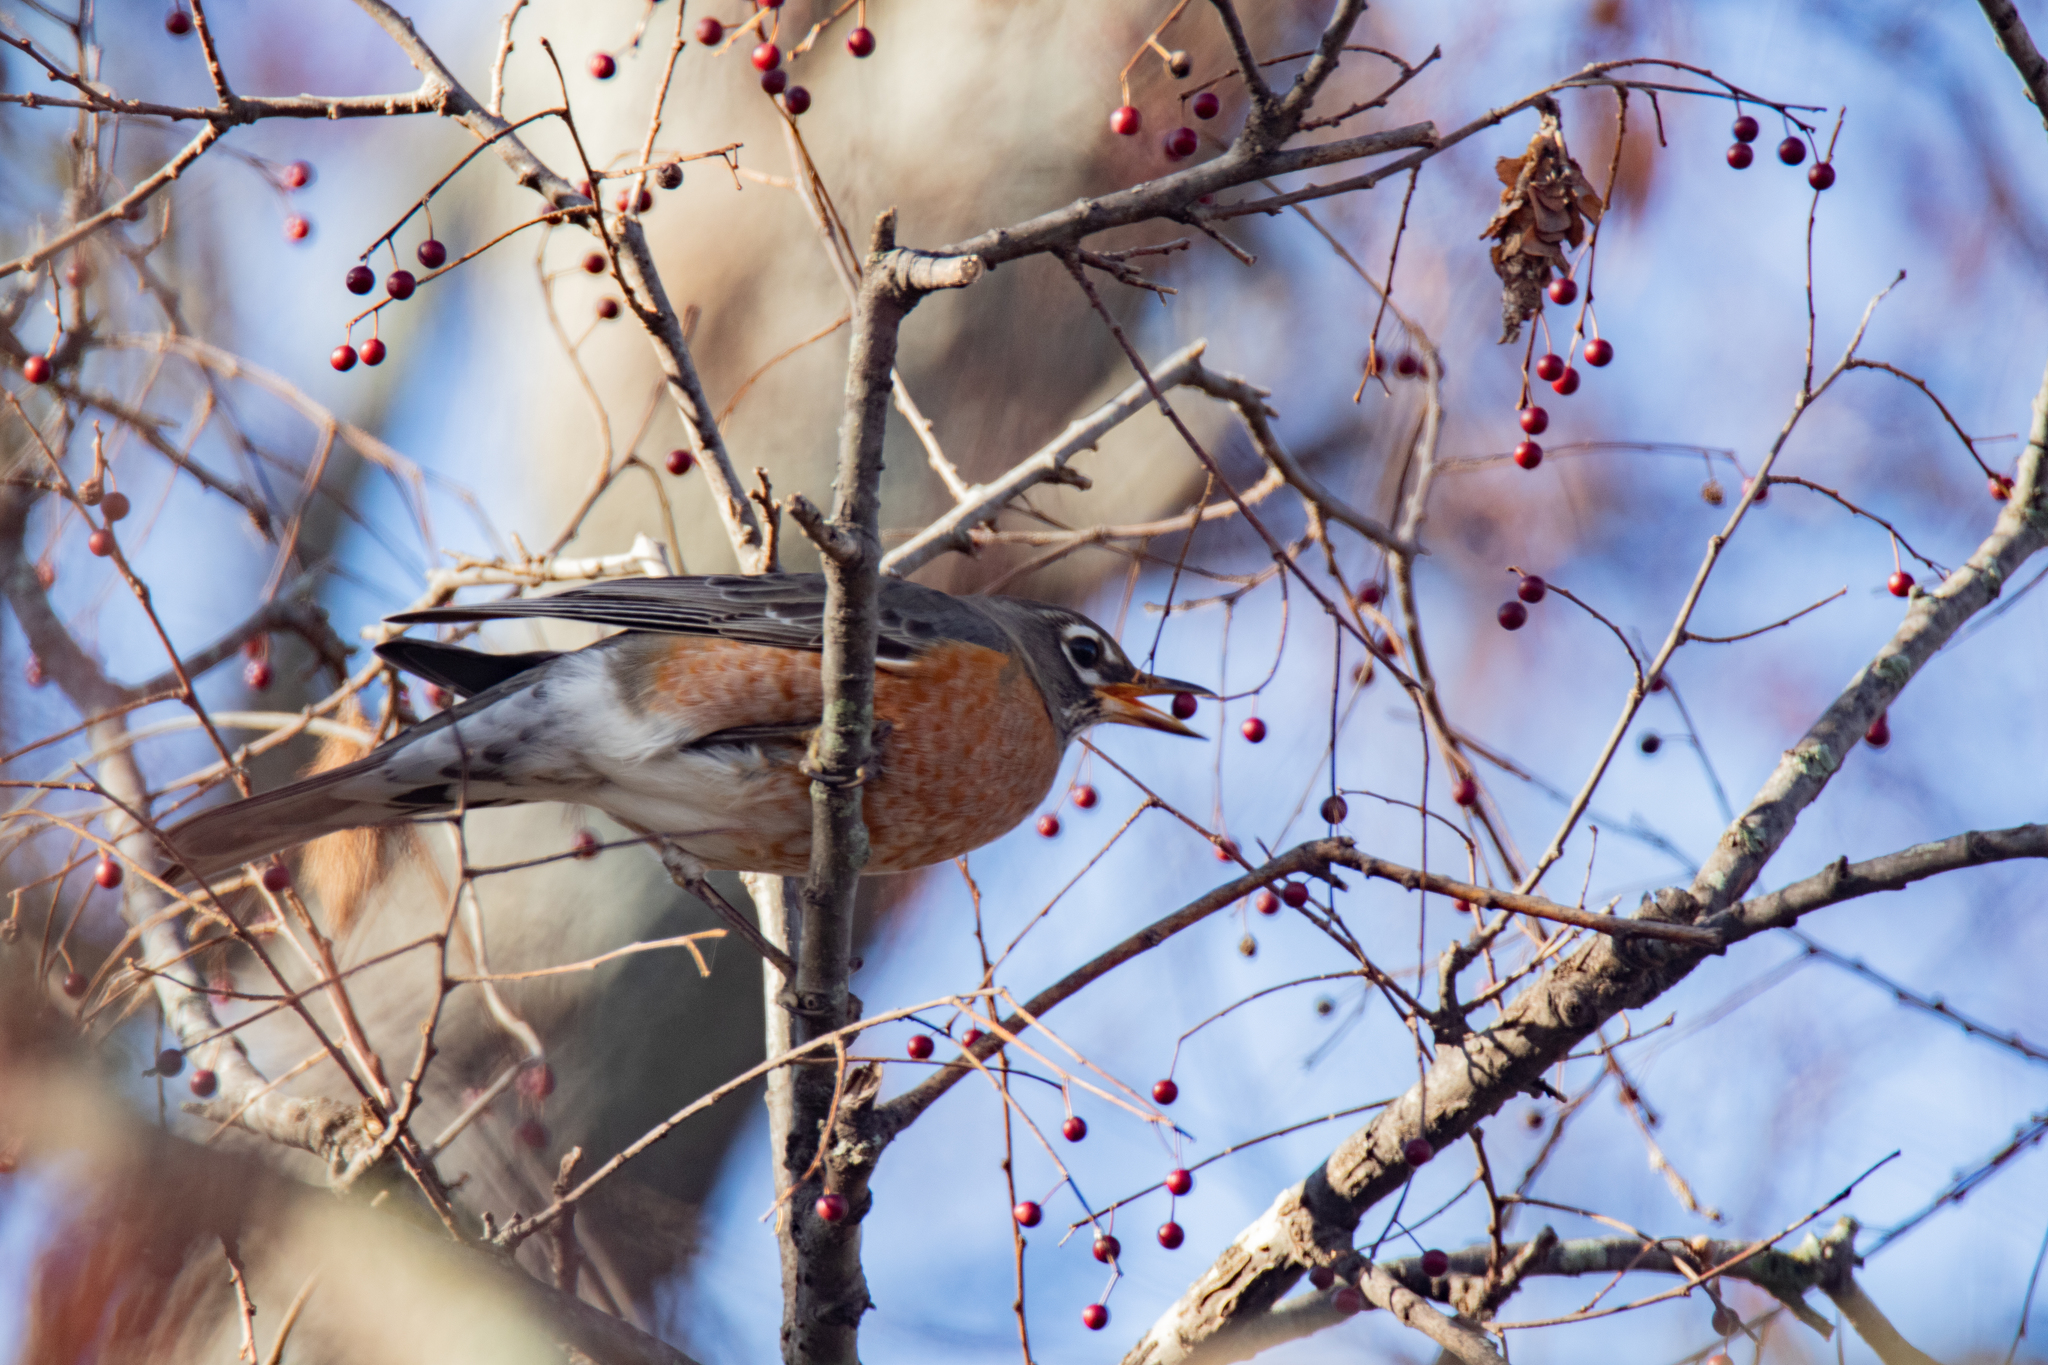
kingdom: Animalia
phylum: Chordata
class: Aves
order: Passeriformes
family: Turdidae
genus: Turdus
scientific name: Turdus migratorius
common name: American robin
